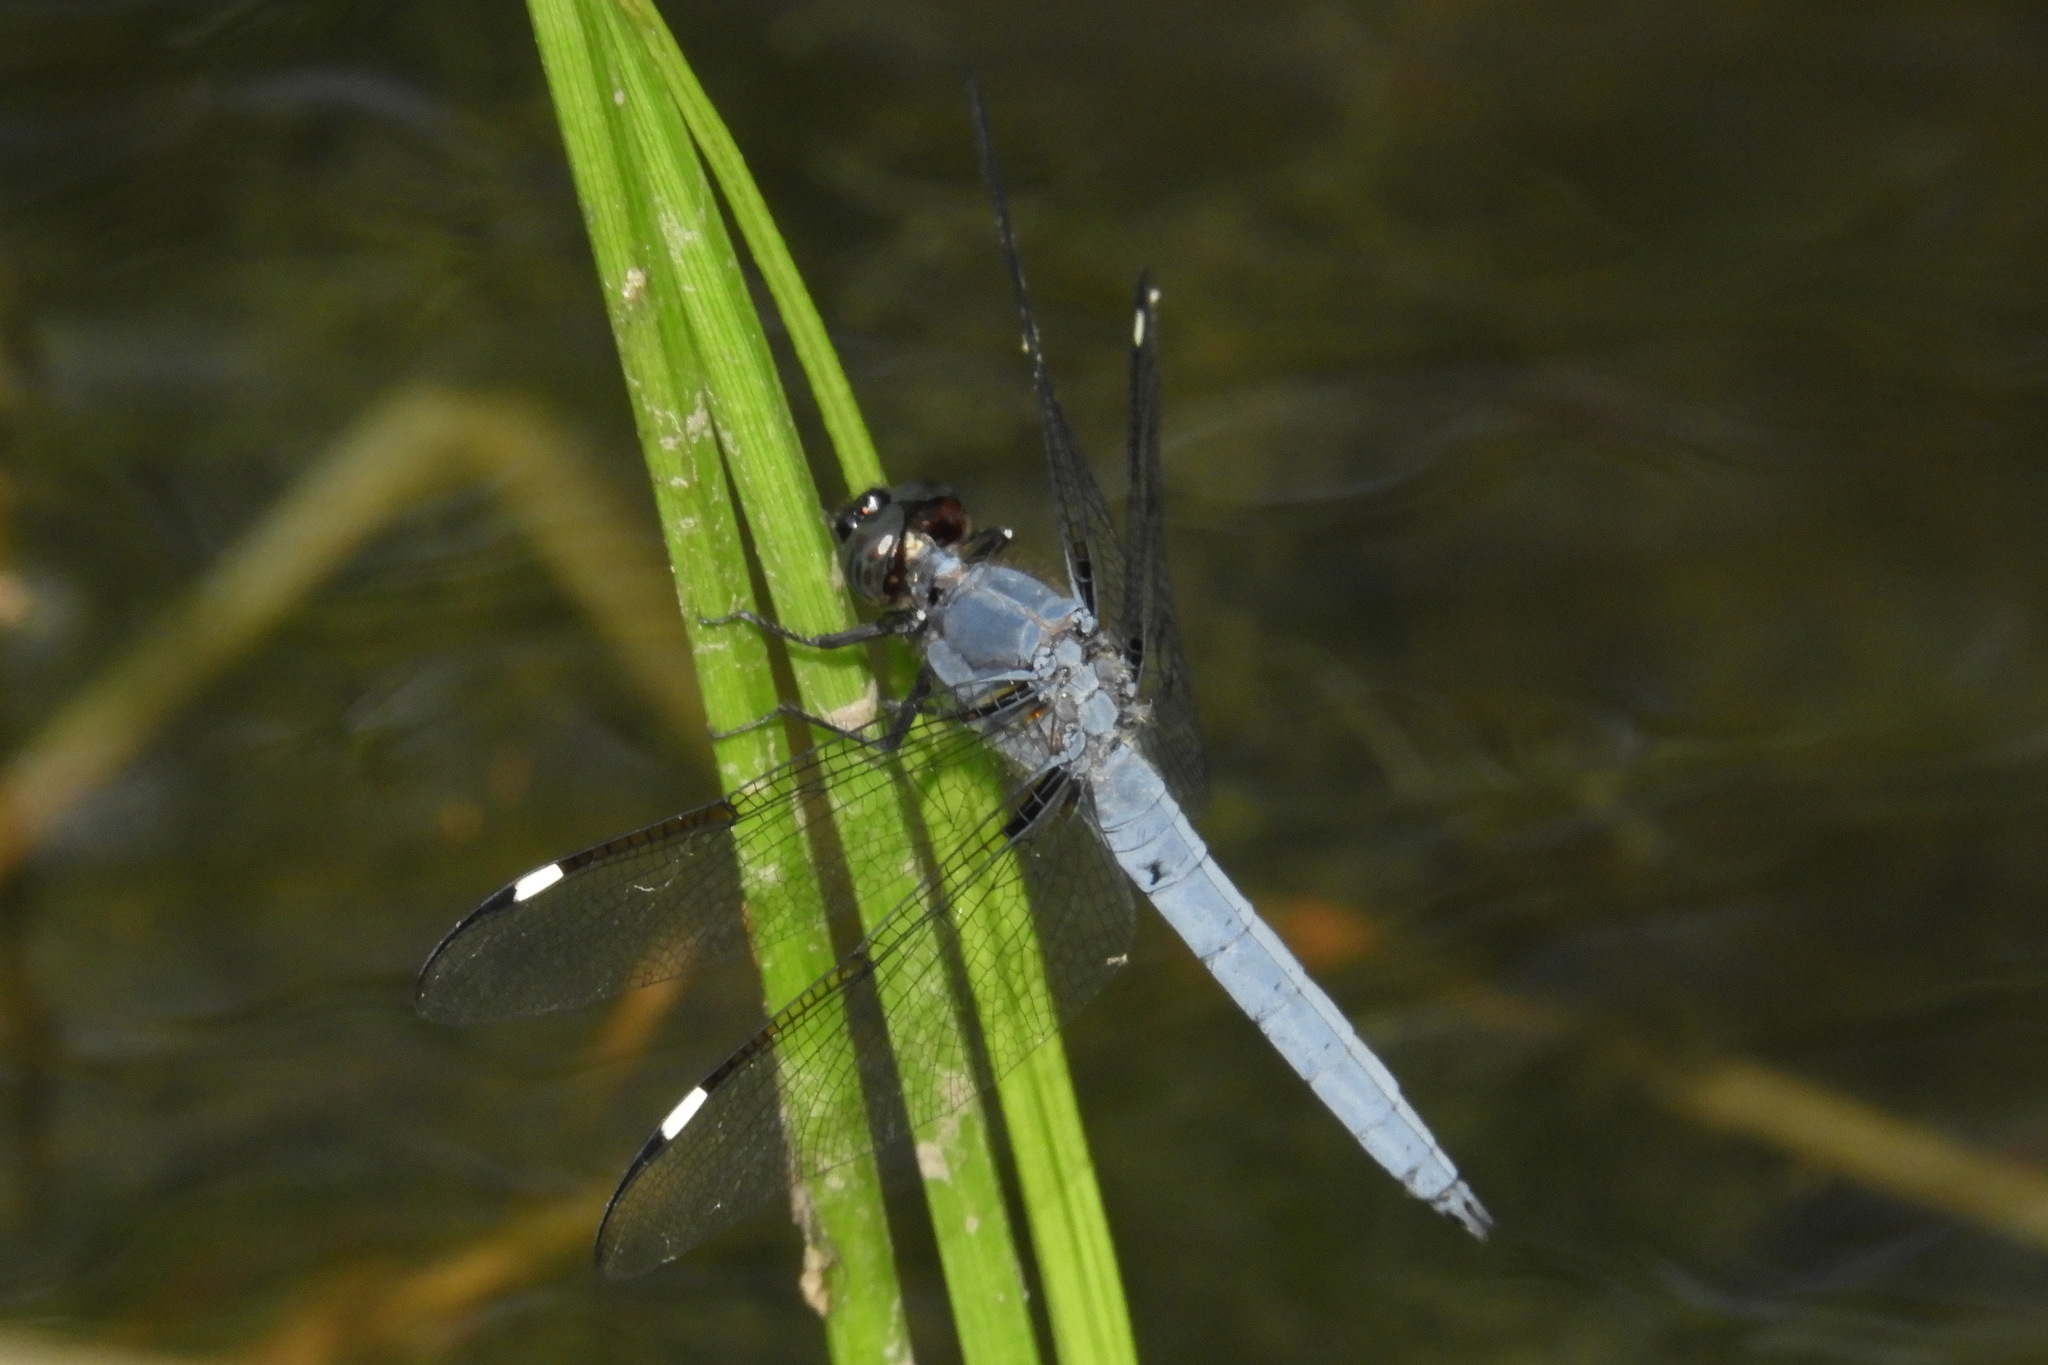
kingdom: Animalia
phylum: Arthropoda
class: Insecta
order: Odonata
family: Libellulidae
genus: Libellula
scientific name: Libellula cyanea
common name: Spangled skimmer
